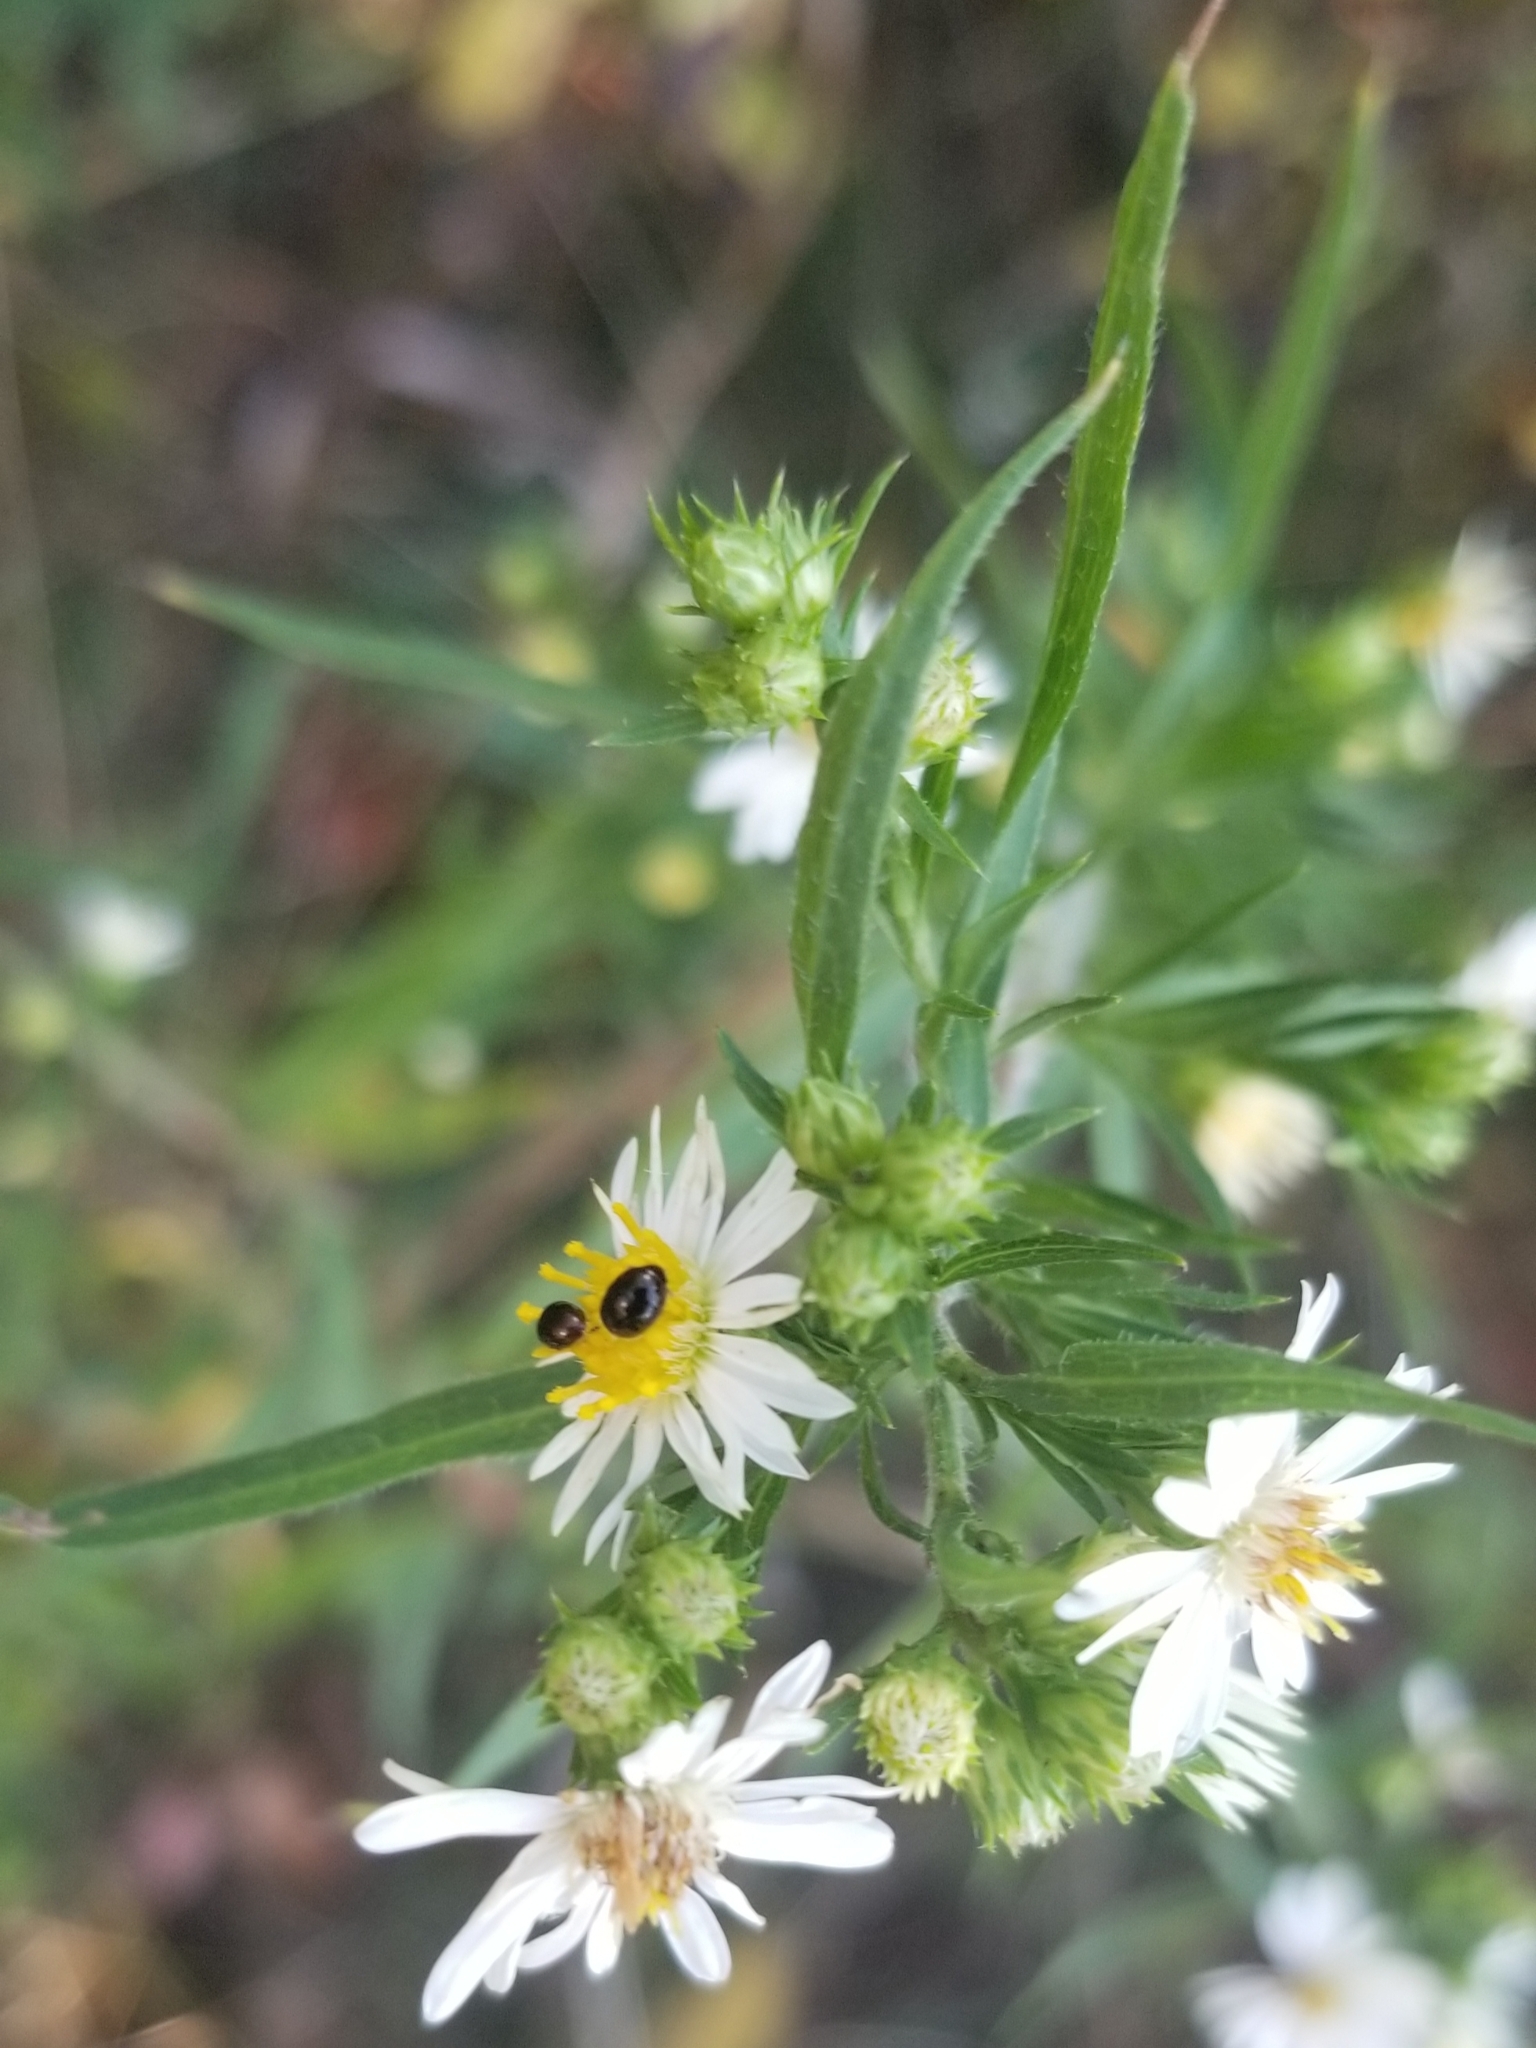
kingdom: Plantae
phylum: Tracheophyta
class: Magnoliopsida
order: Asterales
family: Asteraceae
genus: Symphyotrichum
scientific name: Symphyotrichum pilosum
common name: Awl aster
